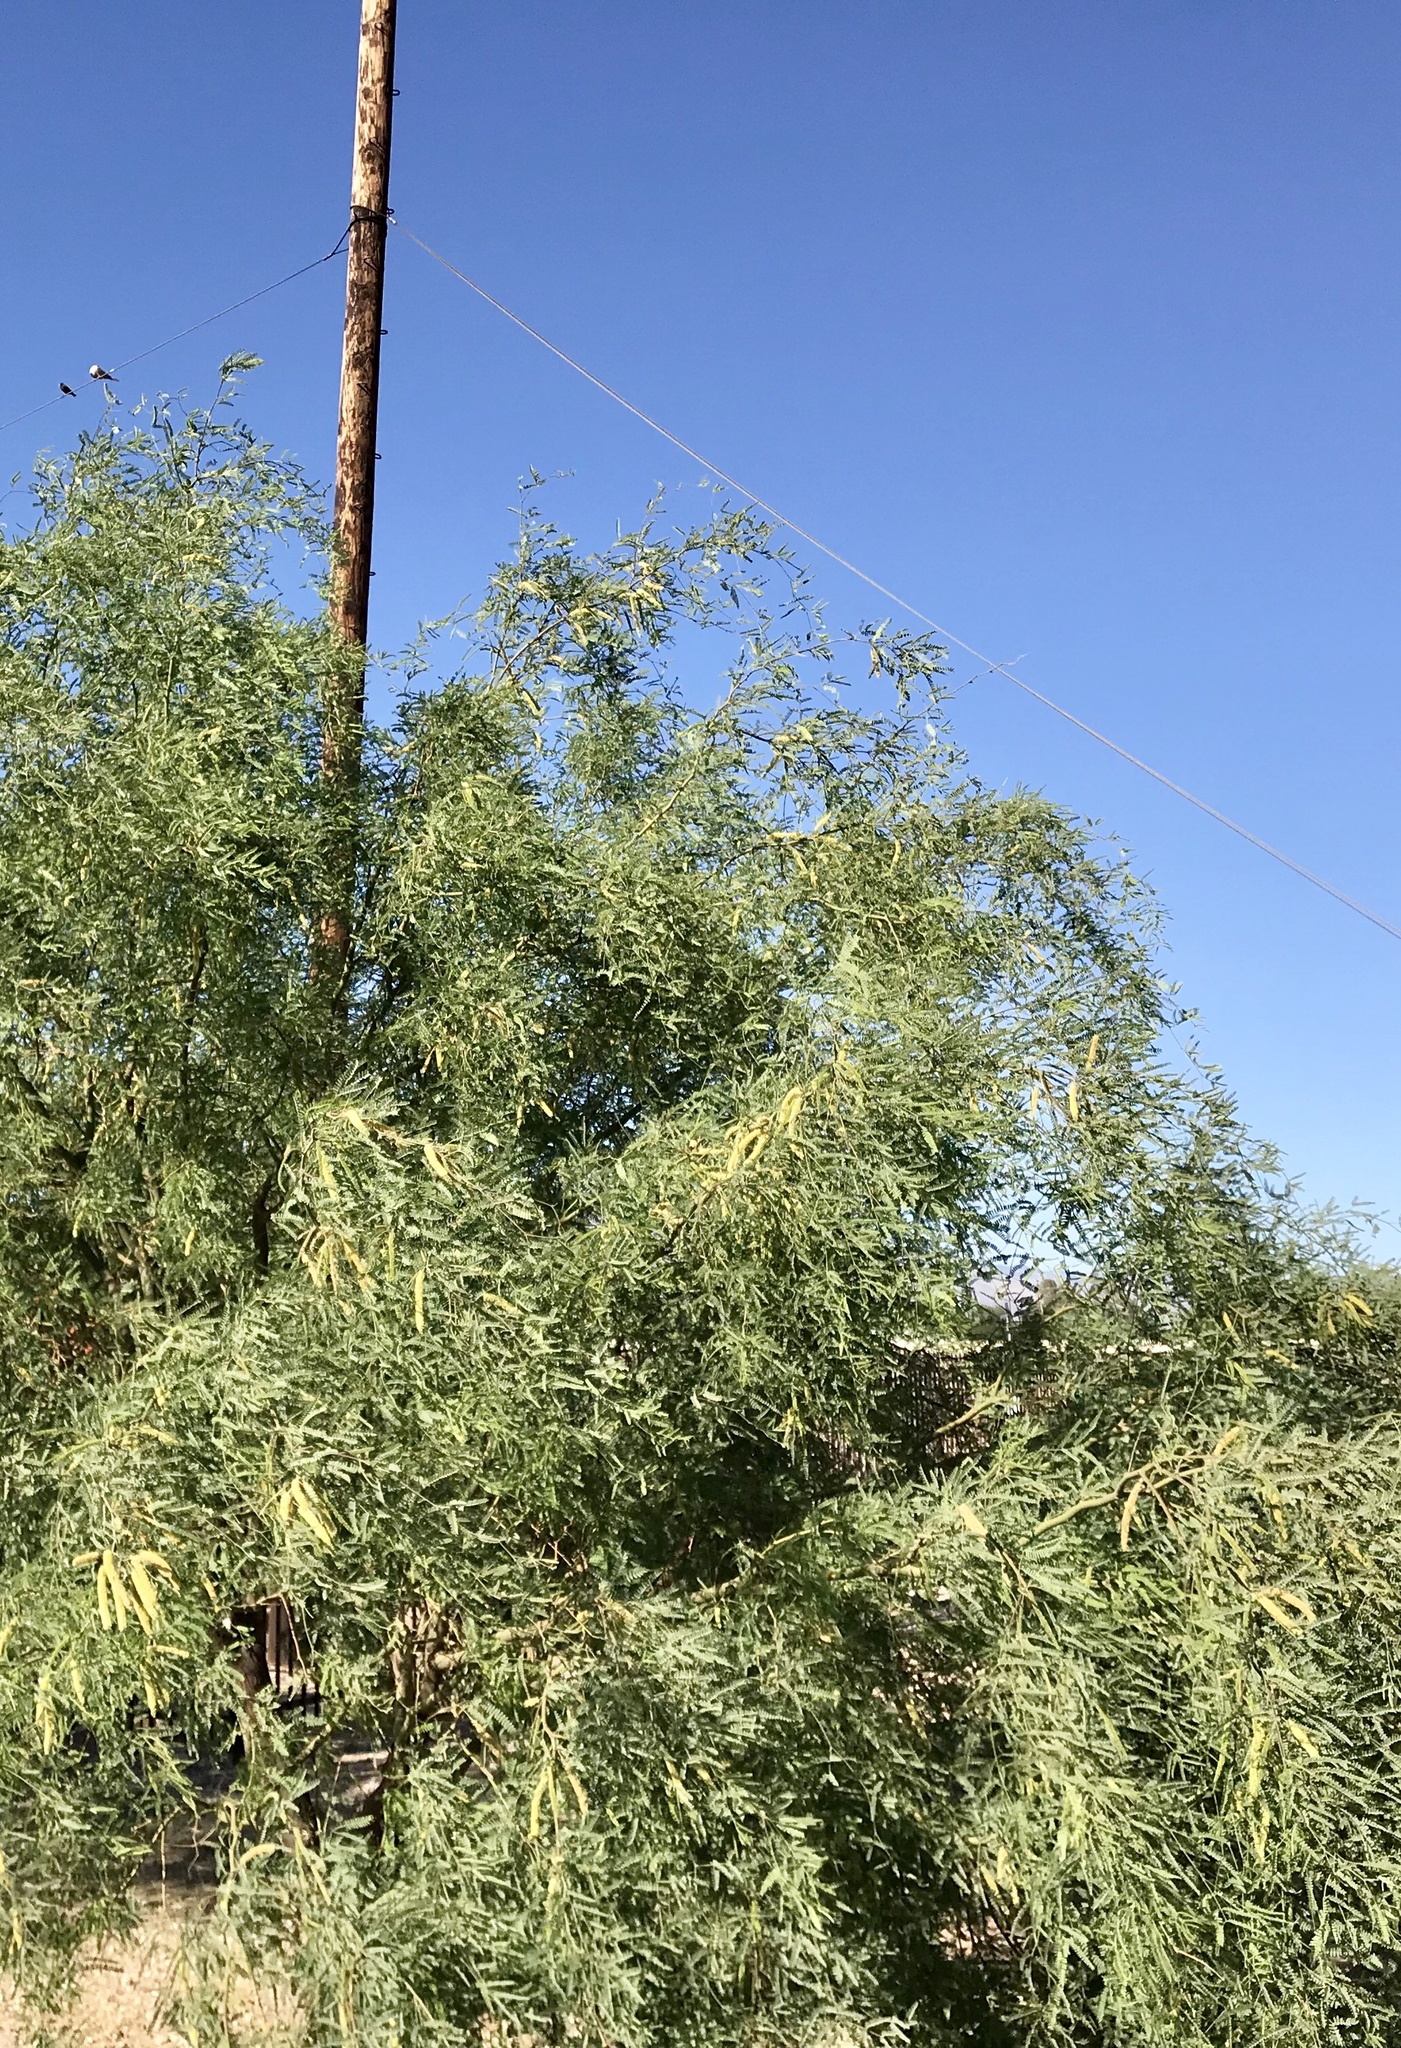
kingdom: Plantae
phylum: Tracheophyta
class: Magnoliopsida
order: Fabales
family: Fabaceae
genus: Prosopis
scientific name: Prosopis velutina
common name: Velvet mesquite
